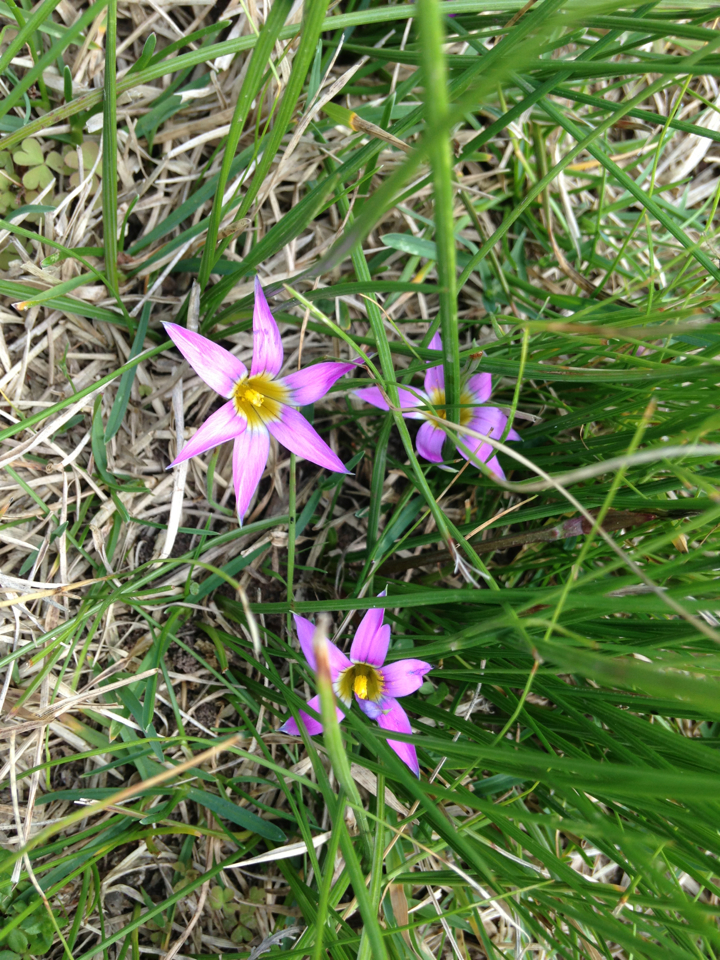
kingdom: Plantae
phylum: Tracheophyta
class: Liliopsida
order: Asparagales
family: Iridaceae
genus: Romulea
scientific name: Romulea rosea
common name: Oniongrass
